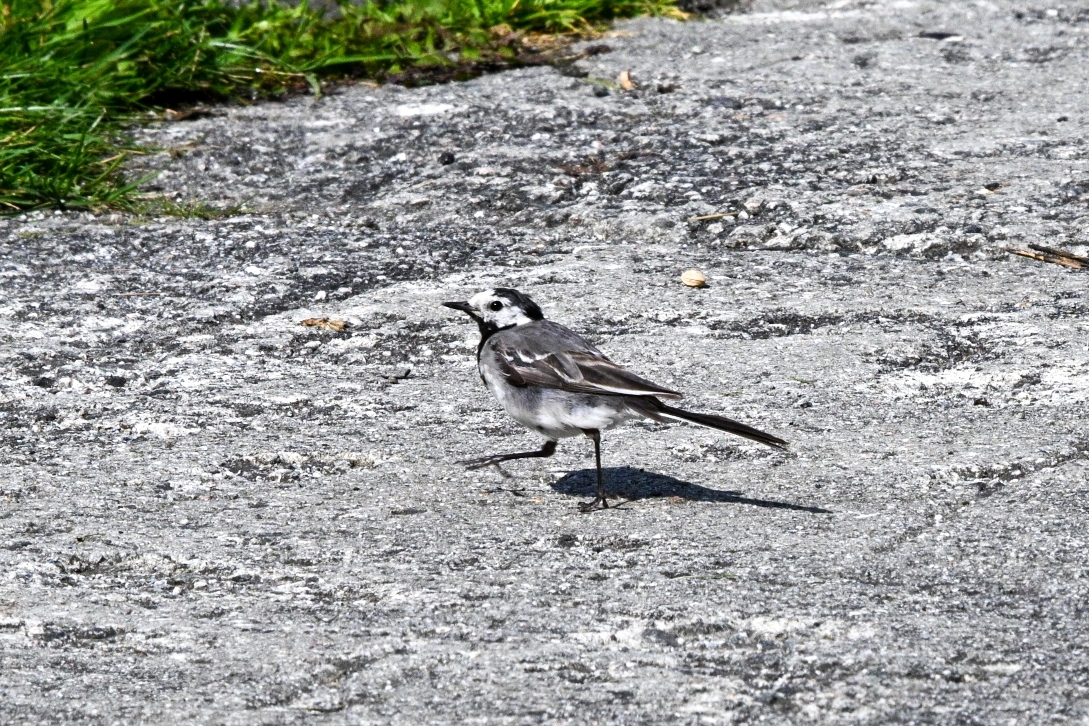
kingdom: Animalia
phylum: Chordata
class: Aves
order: Passeriformes
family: Motacillidae
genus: Motacilla
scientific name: Motacilla alba
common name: White wagtail
